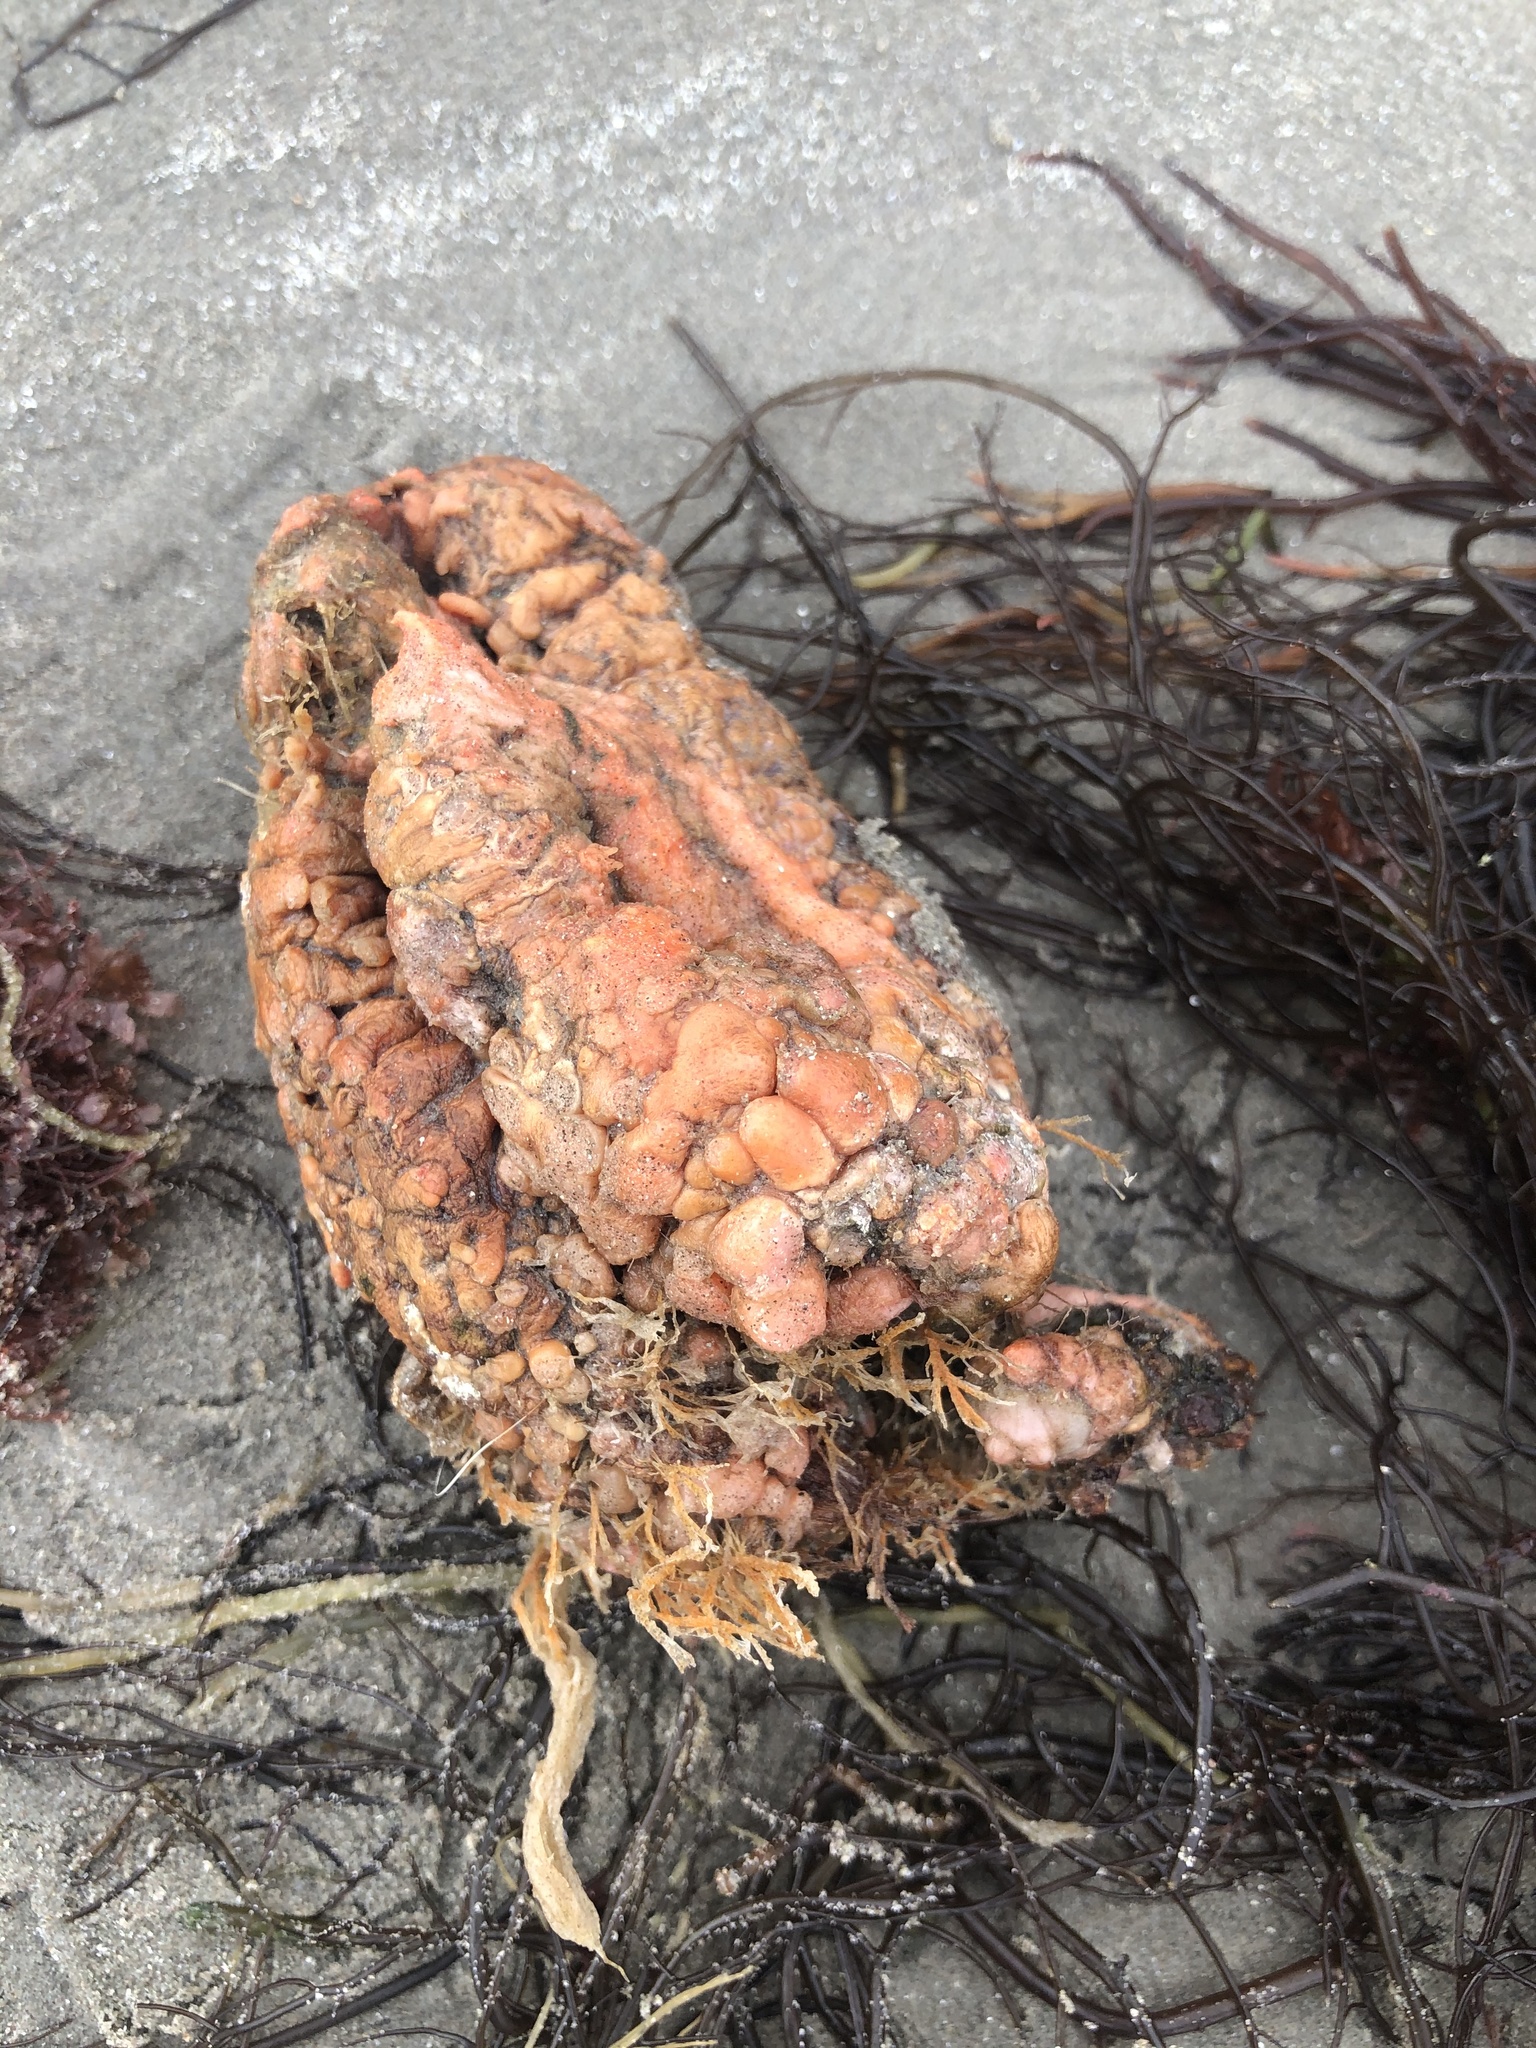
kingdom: Animalia
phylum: Chordata
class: Ascidiacea
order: Stolidobranchia
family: Pyuridae
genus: Pyura
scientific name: Pyura chilensis
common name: Red sea squirt
